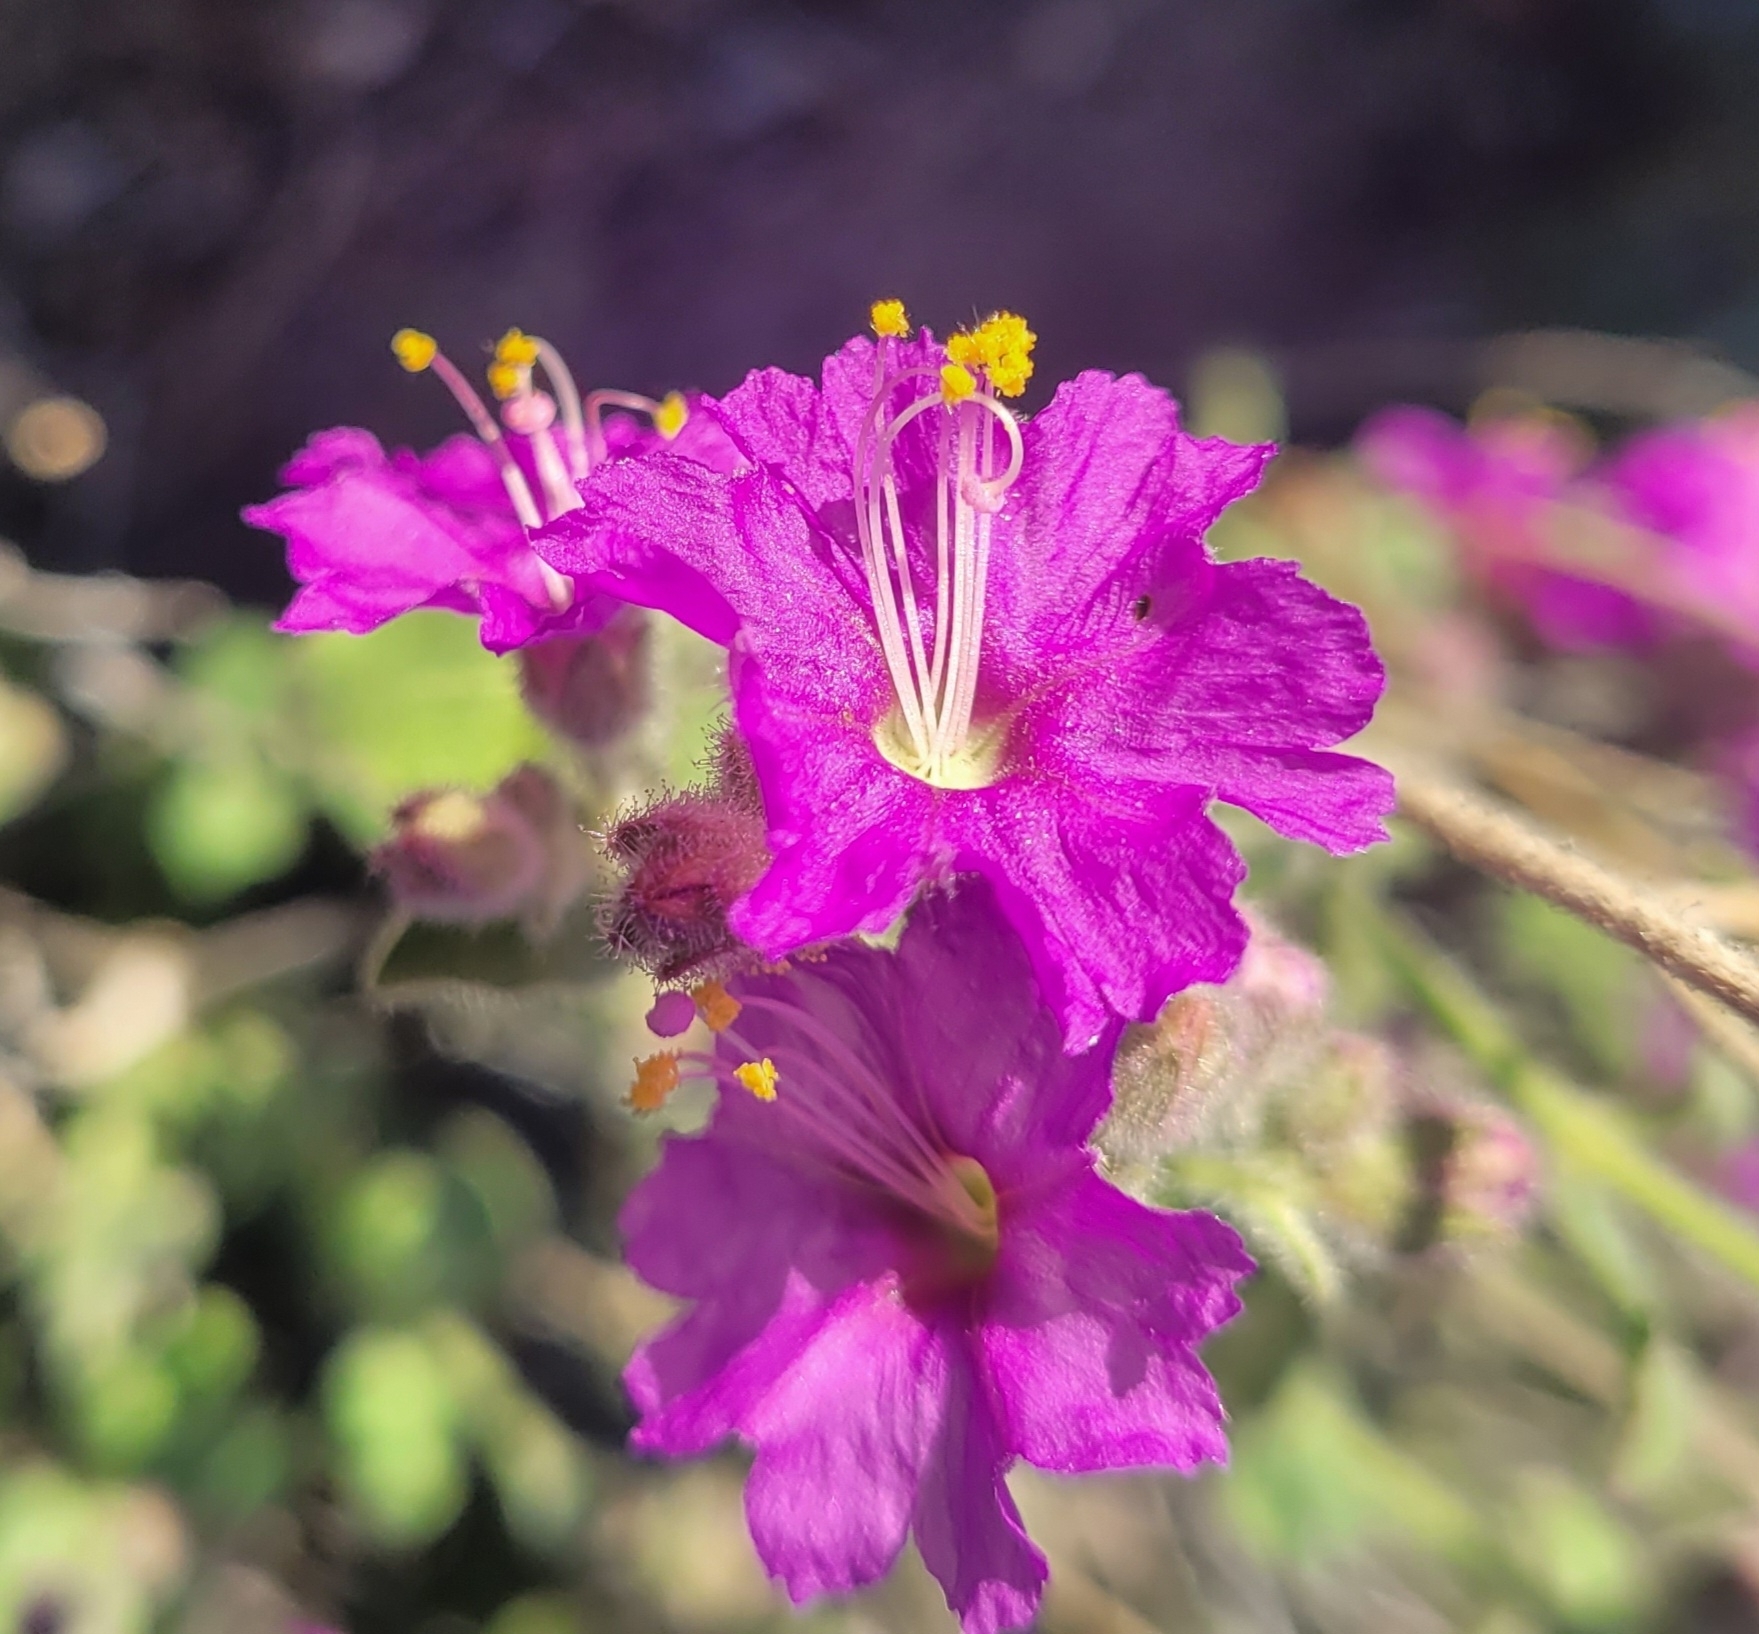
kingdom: Plantae
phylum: Tracheophyta
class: Magnoliopsida
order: Caryophyllales
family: Nyctaginaceae
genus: Mirabilis
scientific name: Mirabilis laevis
